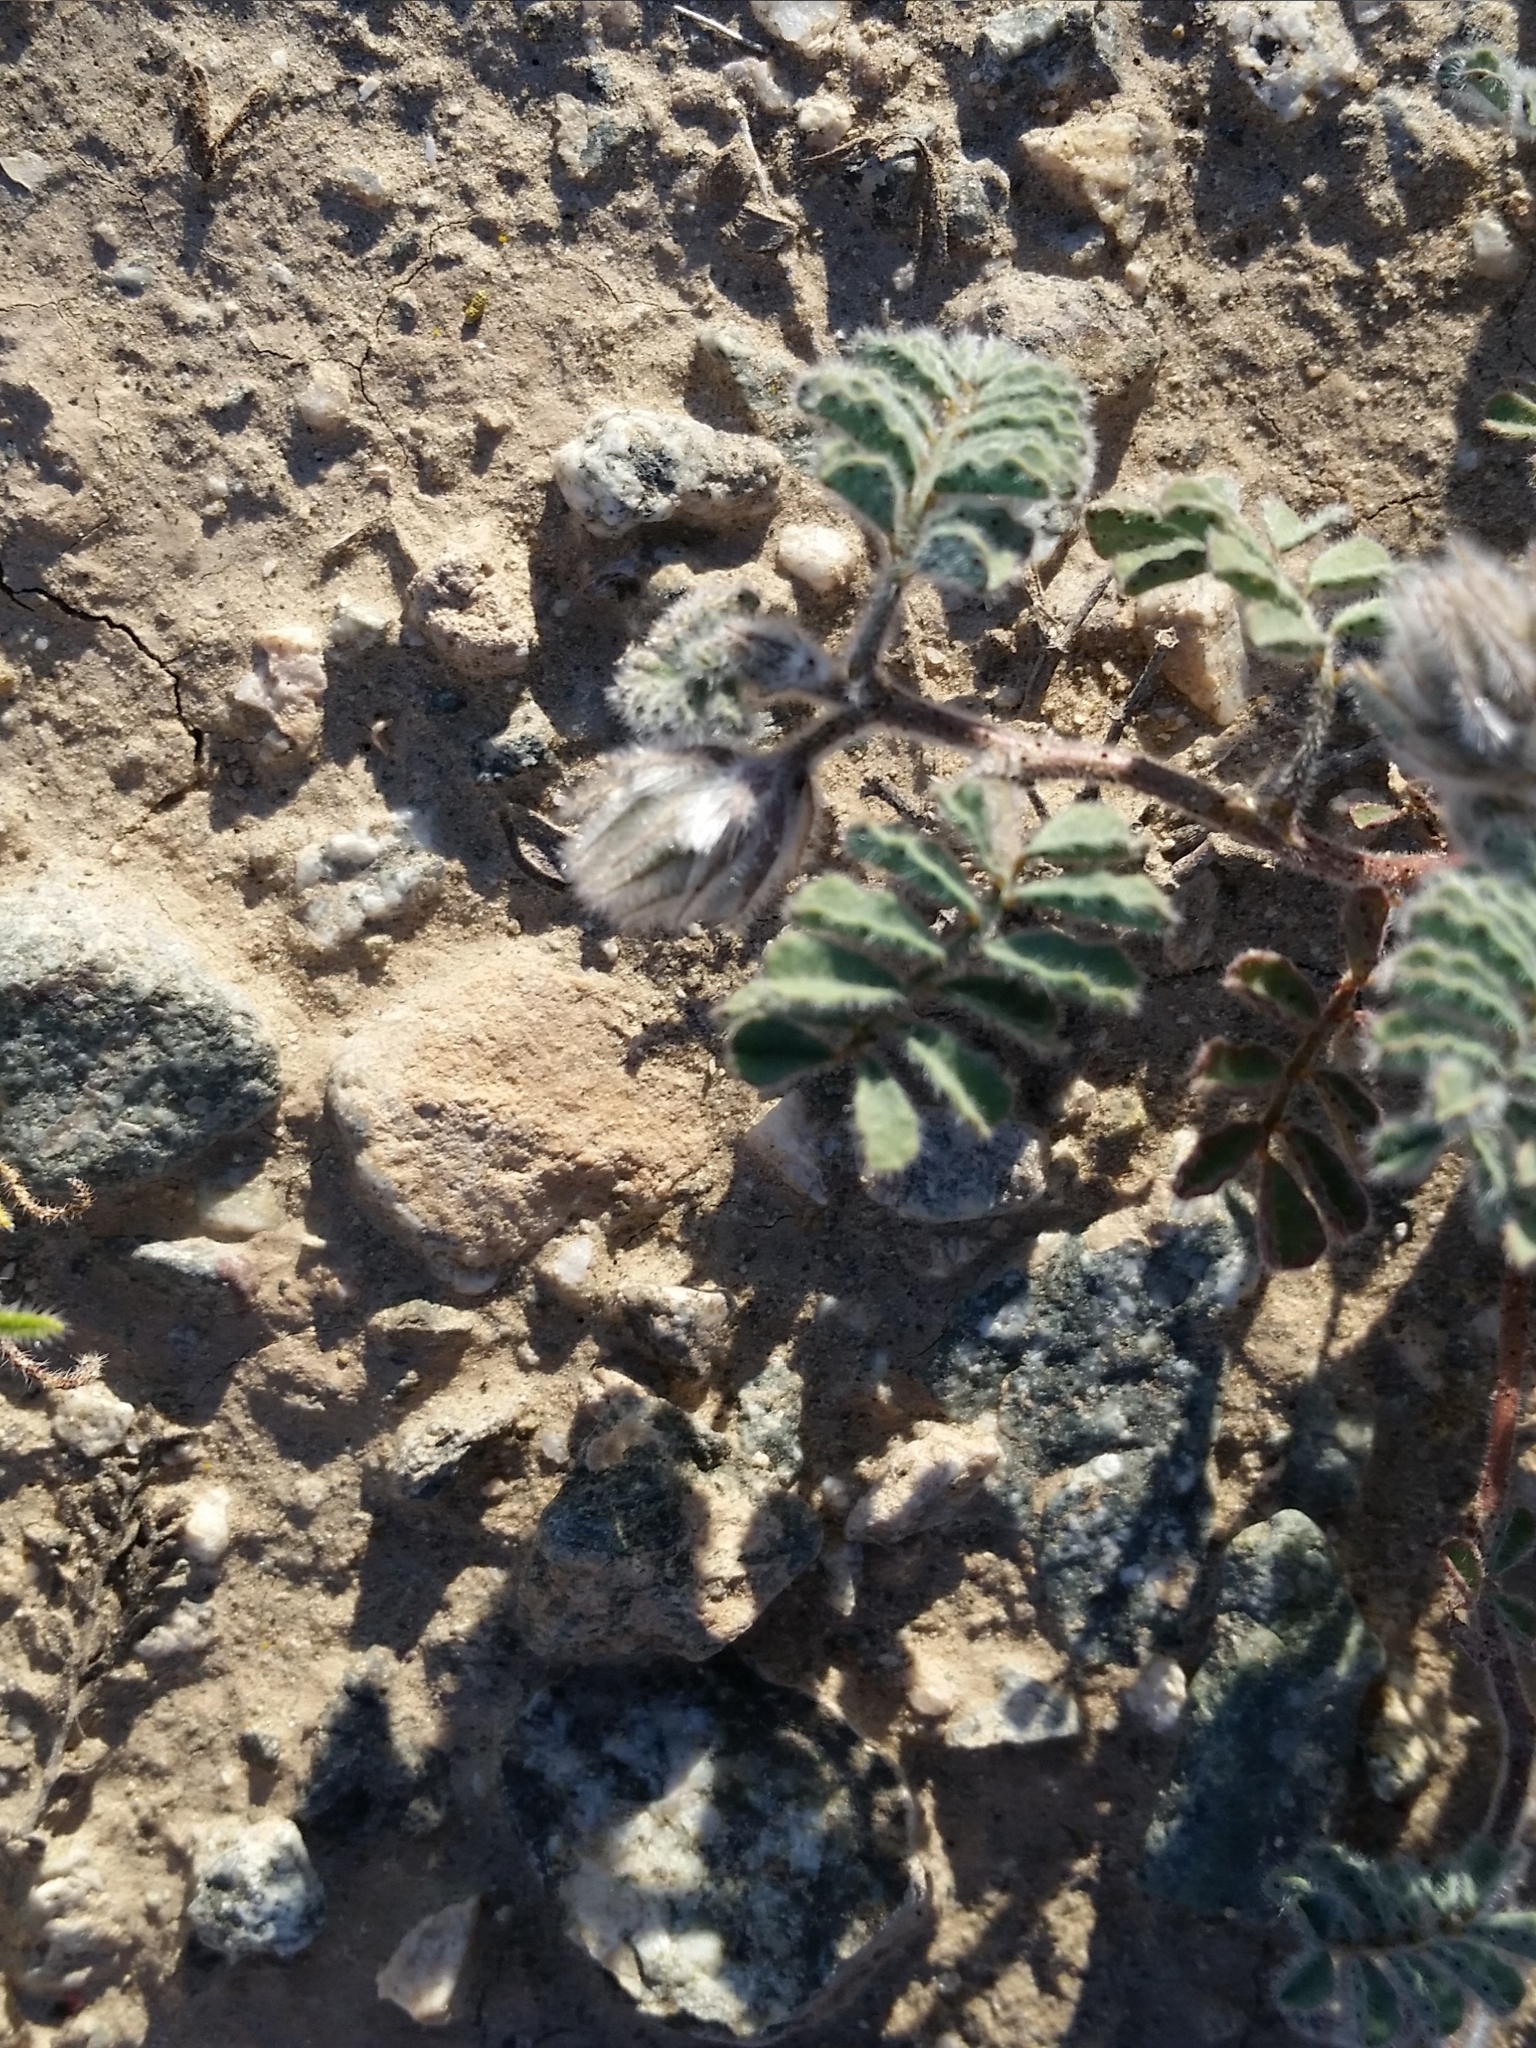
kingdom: Plantae
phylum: Tracheophyta
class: Magnoliopsida
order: Fabales
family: Fabaceae
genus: Dalea
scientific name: Dalea mollissima
